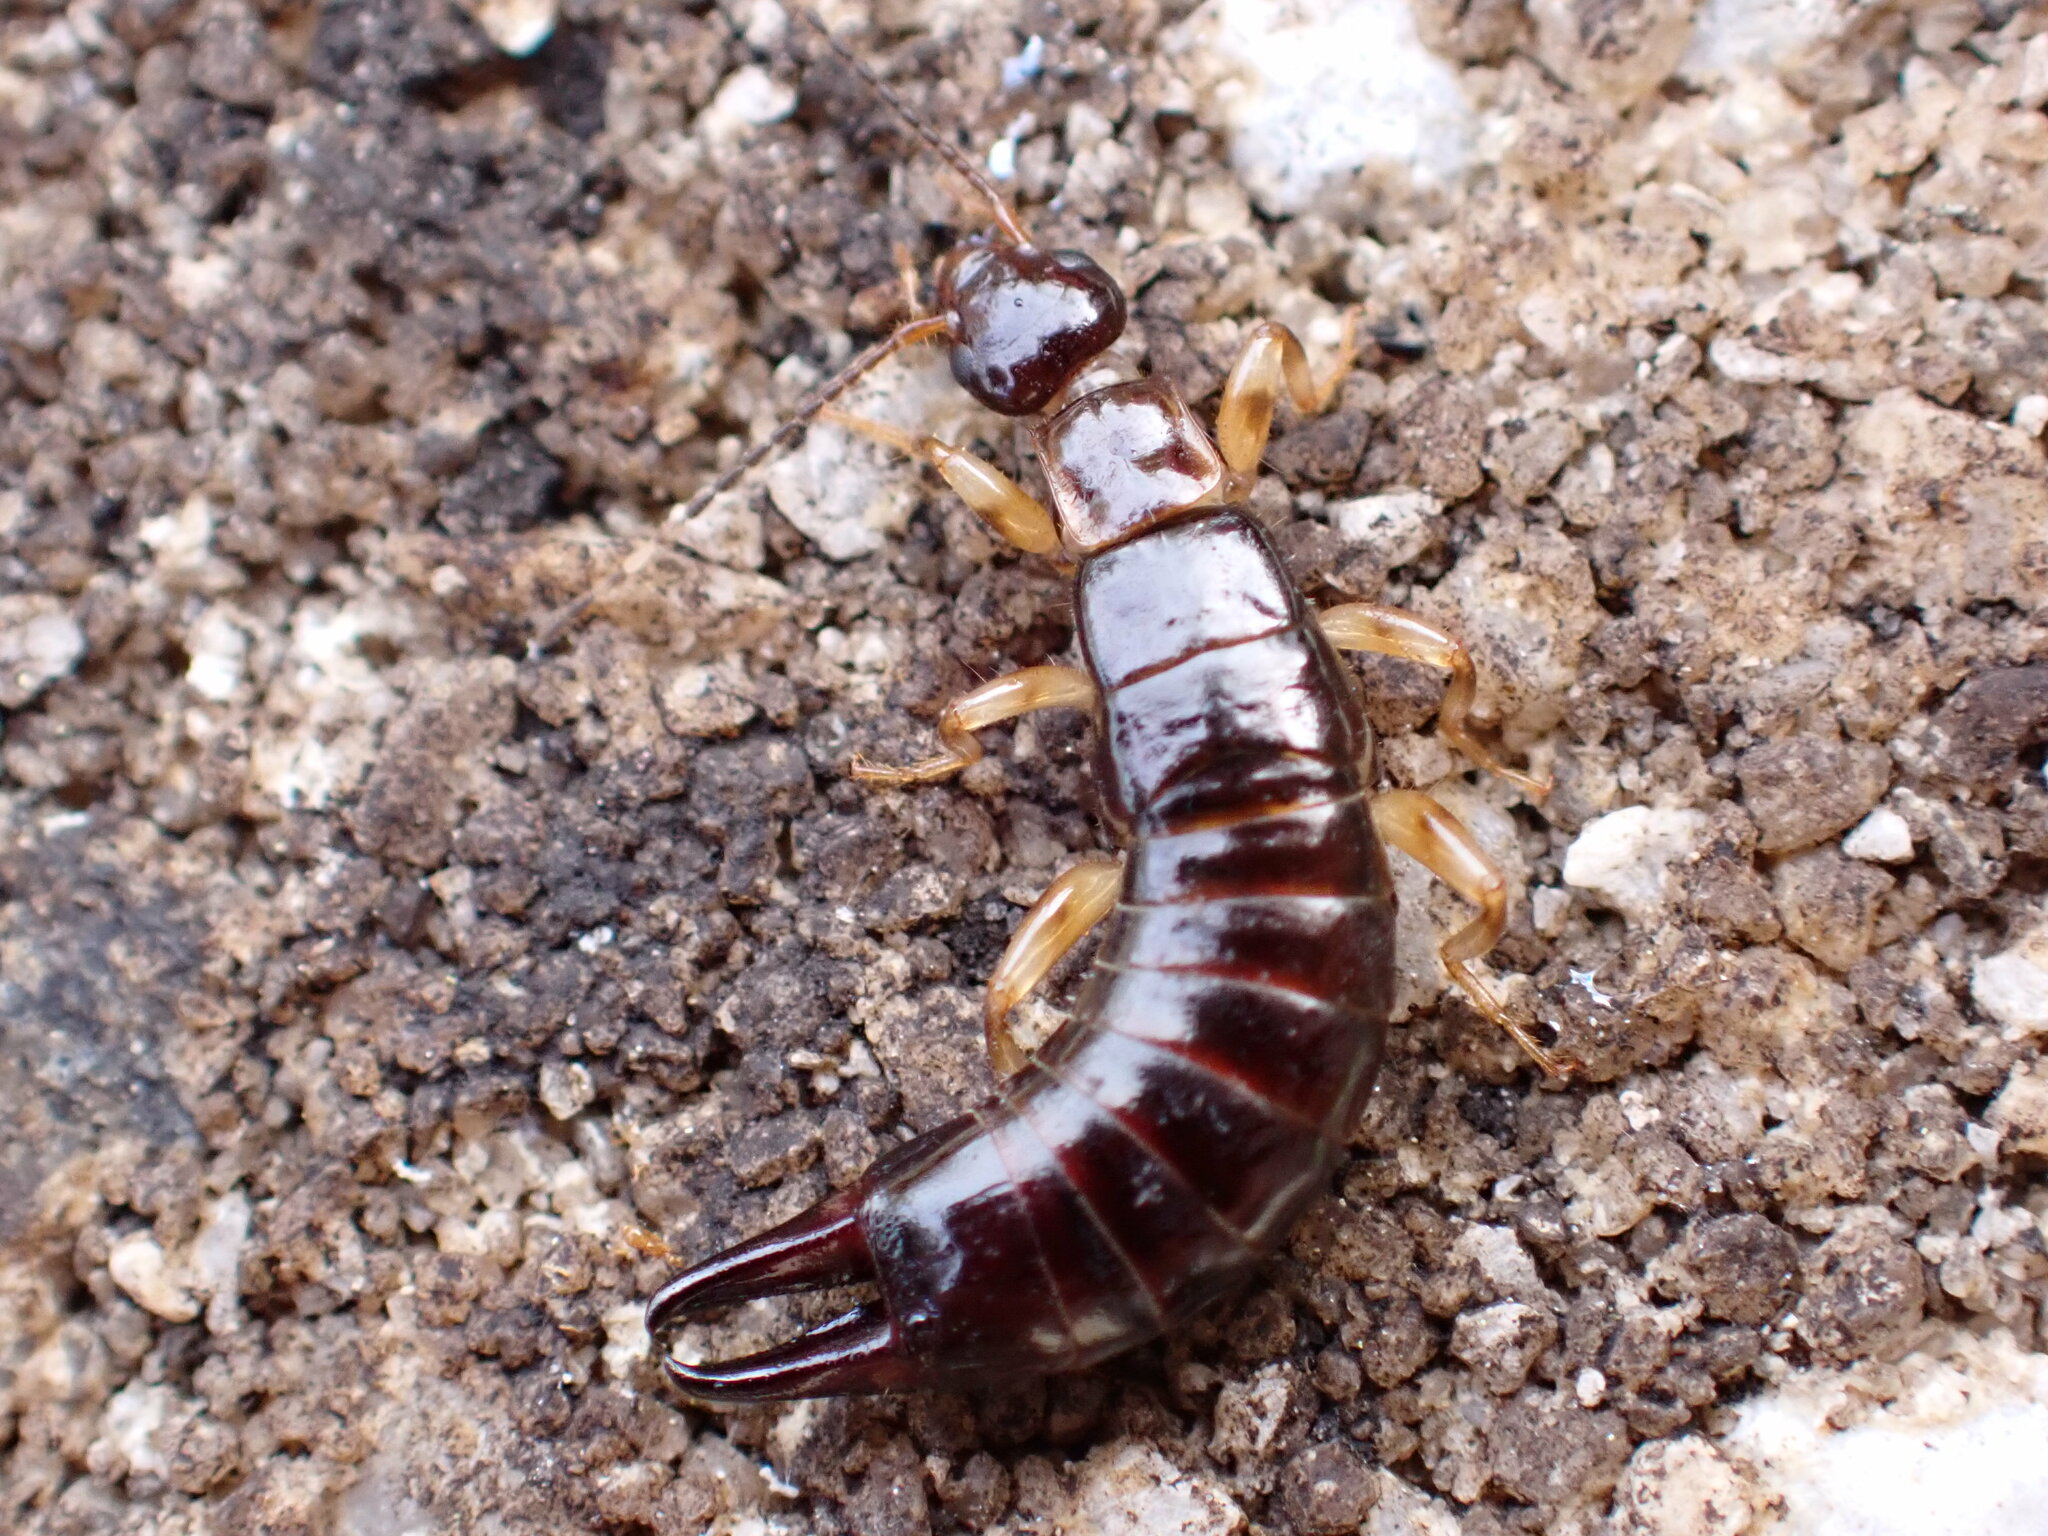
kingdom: Animalia
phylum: Arthropoda
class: Insecta
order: Dermaptera
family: Anisolabididae
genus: Euborellia
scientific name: Euborellia annulipes
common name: Ringlegged earwig
